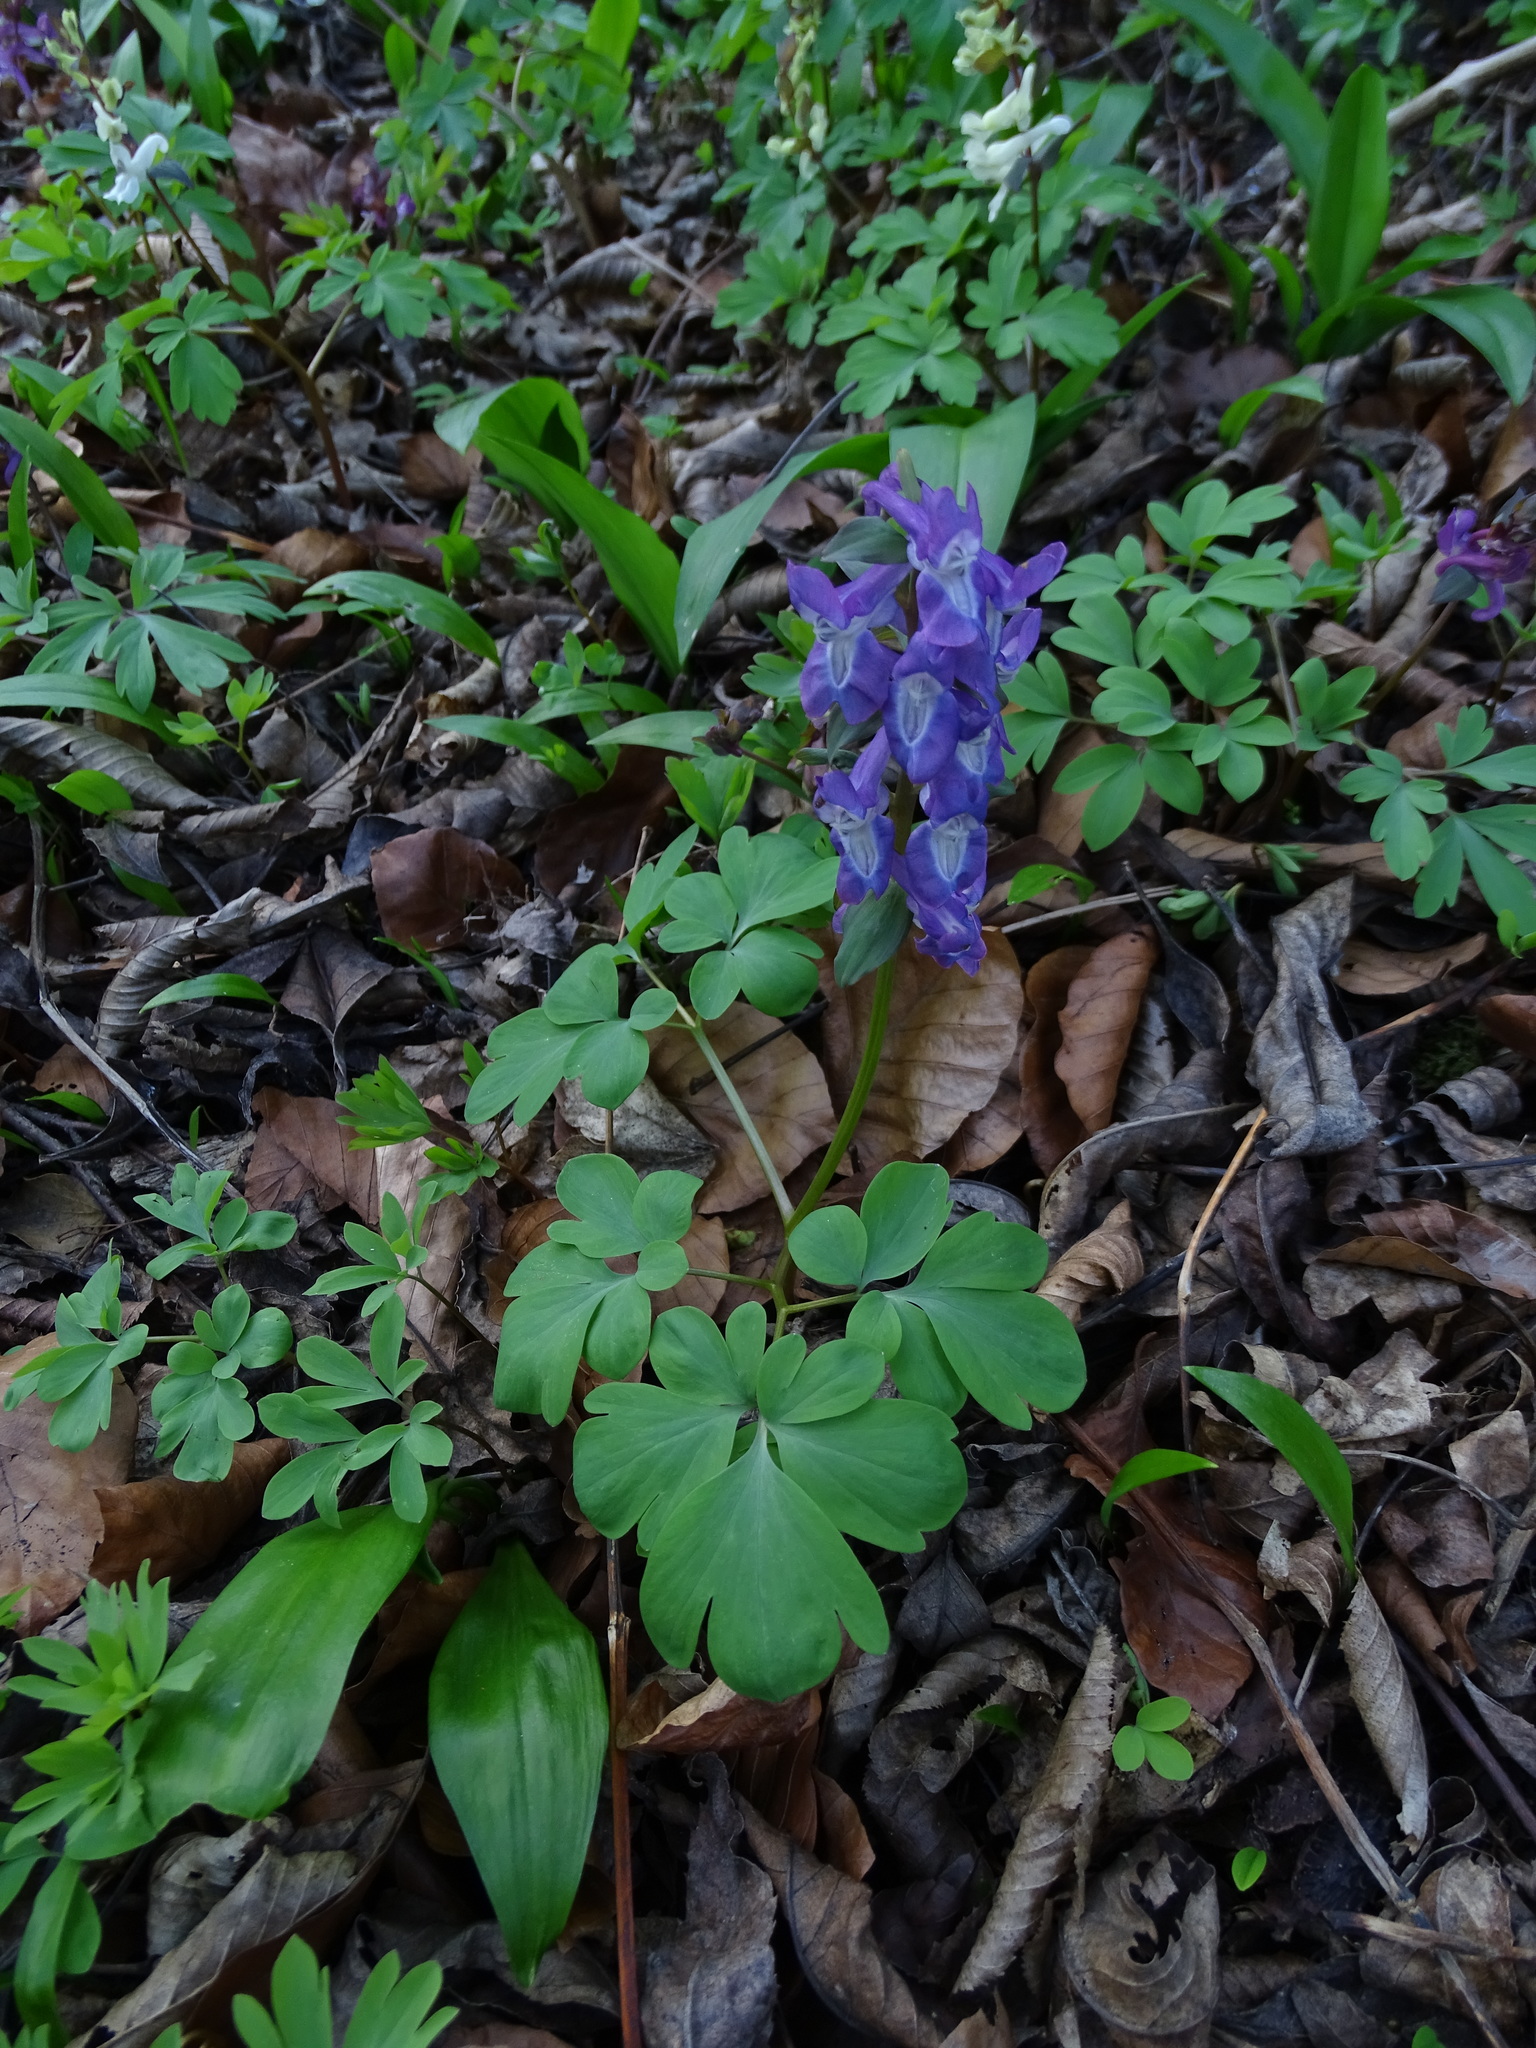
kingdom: Plantae
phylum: Tracheophyta
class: Magnoliopsida
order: Ranunculales
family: Papaveraceae
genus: Corydalis
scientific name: Corydalis cava
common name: Hollowroot
